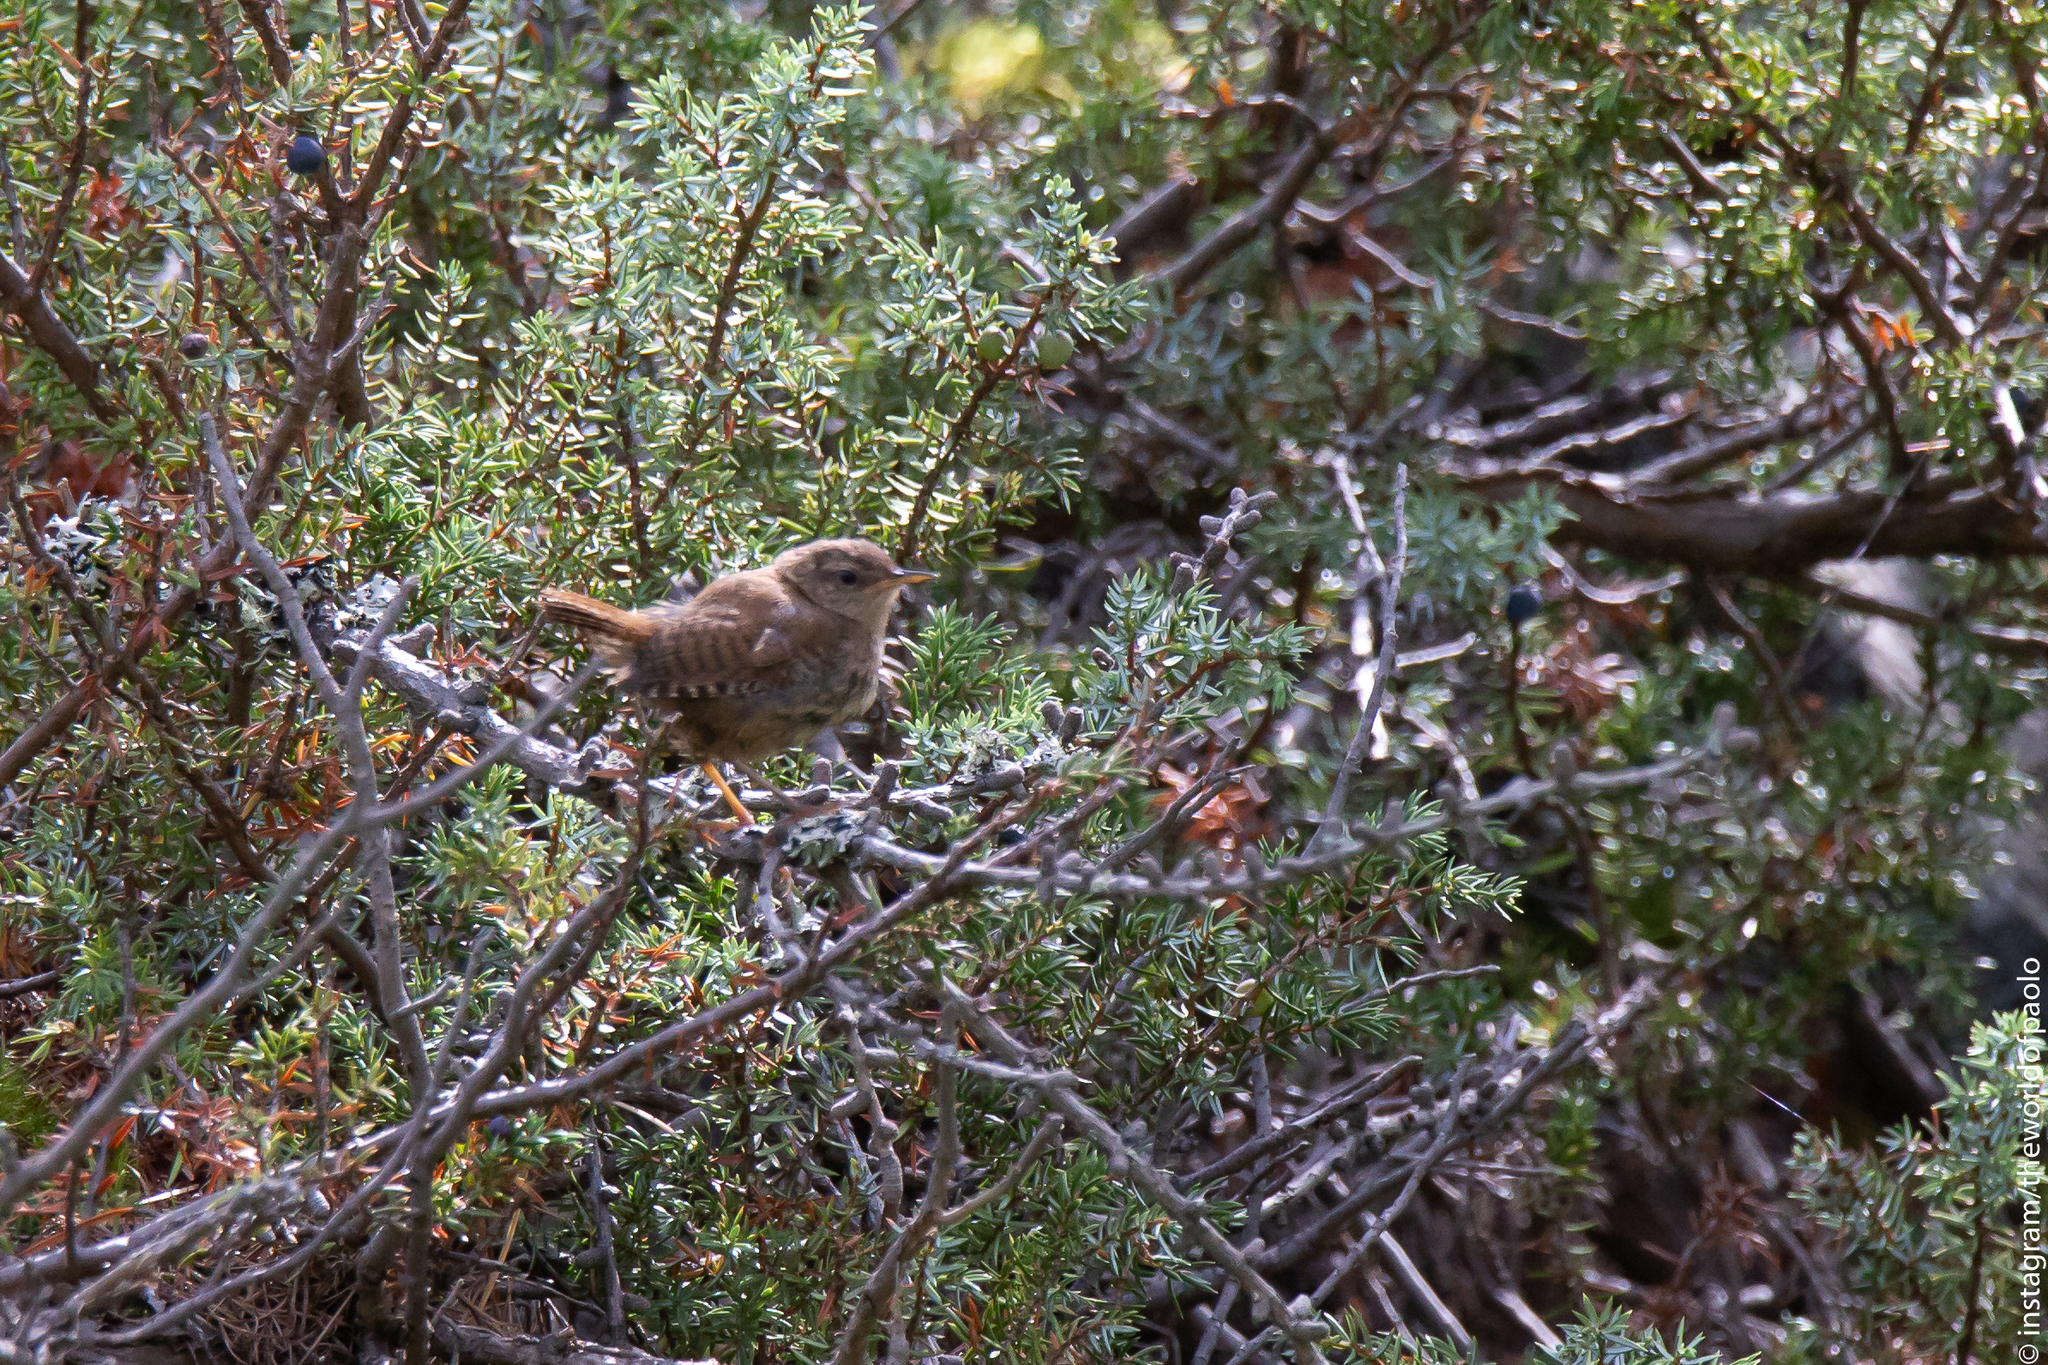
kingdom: Animalia
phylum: Chordata
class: Aves
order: Passeriformes
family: Troglodytidae
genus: Troglodytes
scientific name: Troglodytes troglodytes
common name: Eurasian wren
